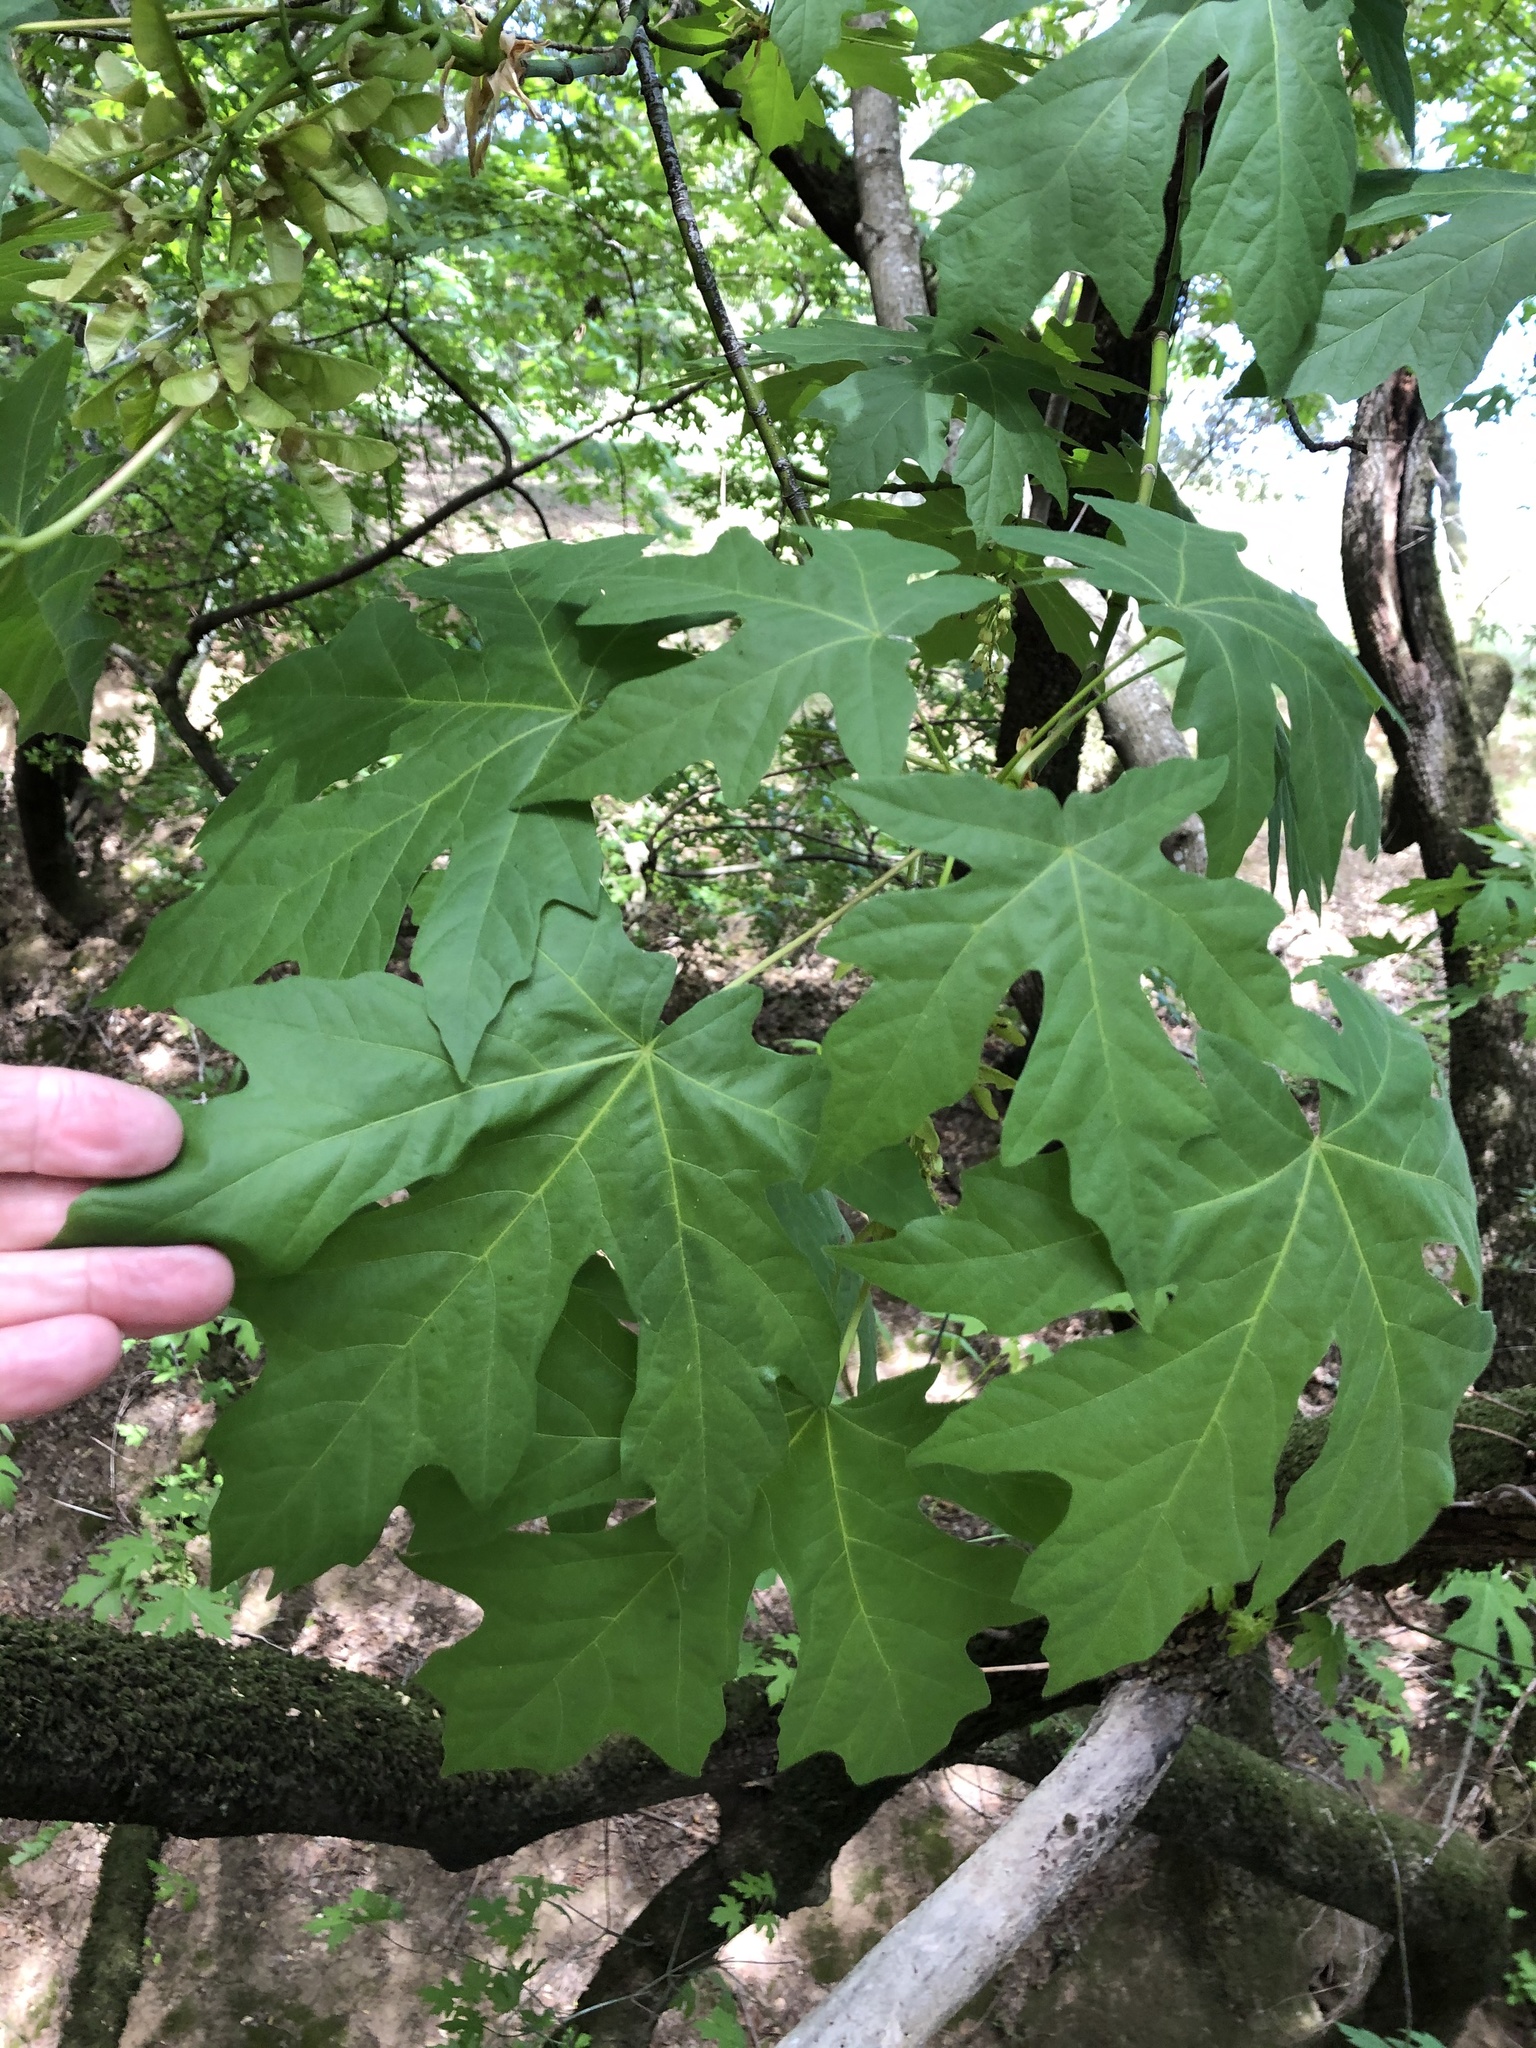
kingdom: Plantae
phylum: Tracheophyta
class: Magnoliopsida
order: Sapindales
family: Sapindaceae
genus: Acer
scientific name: Acer macrophyllum
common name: Oregon maple
